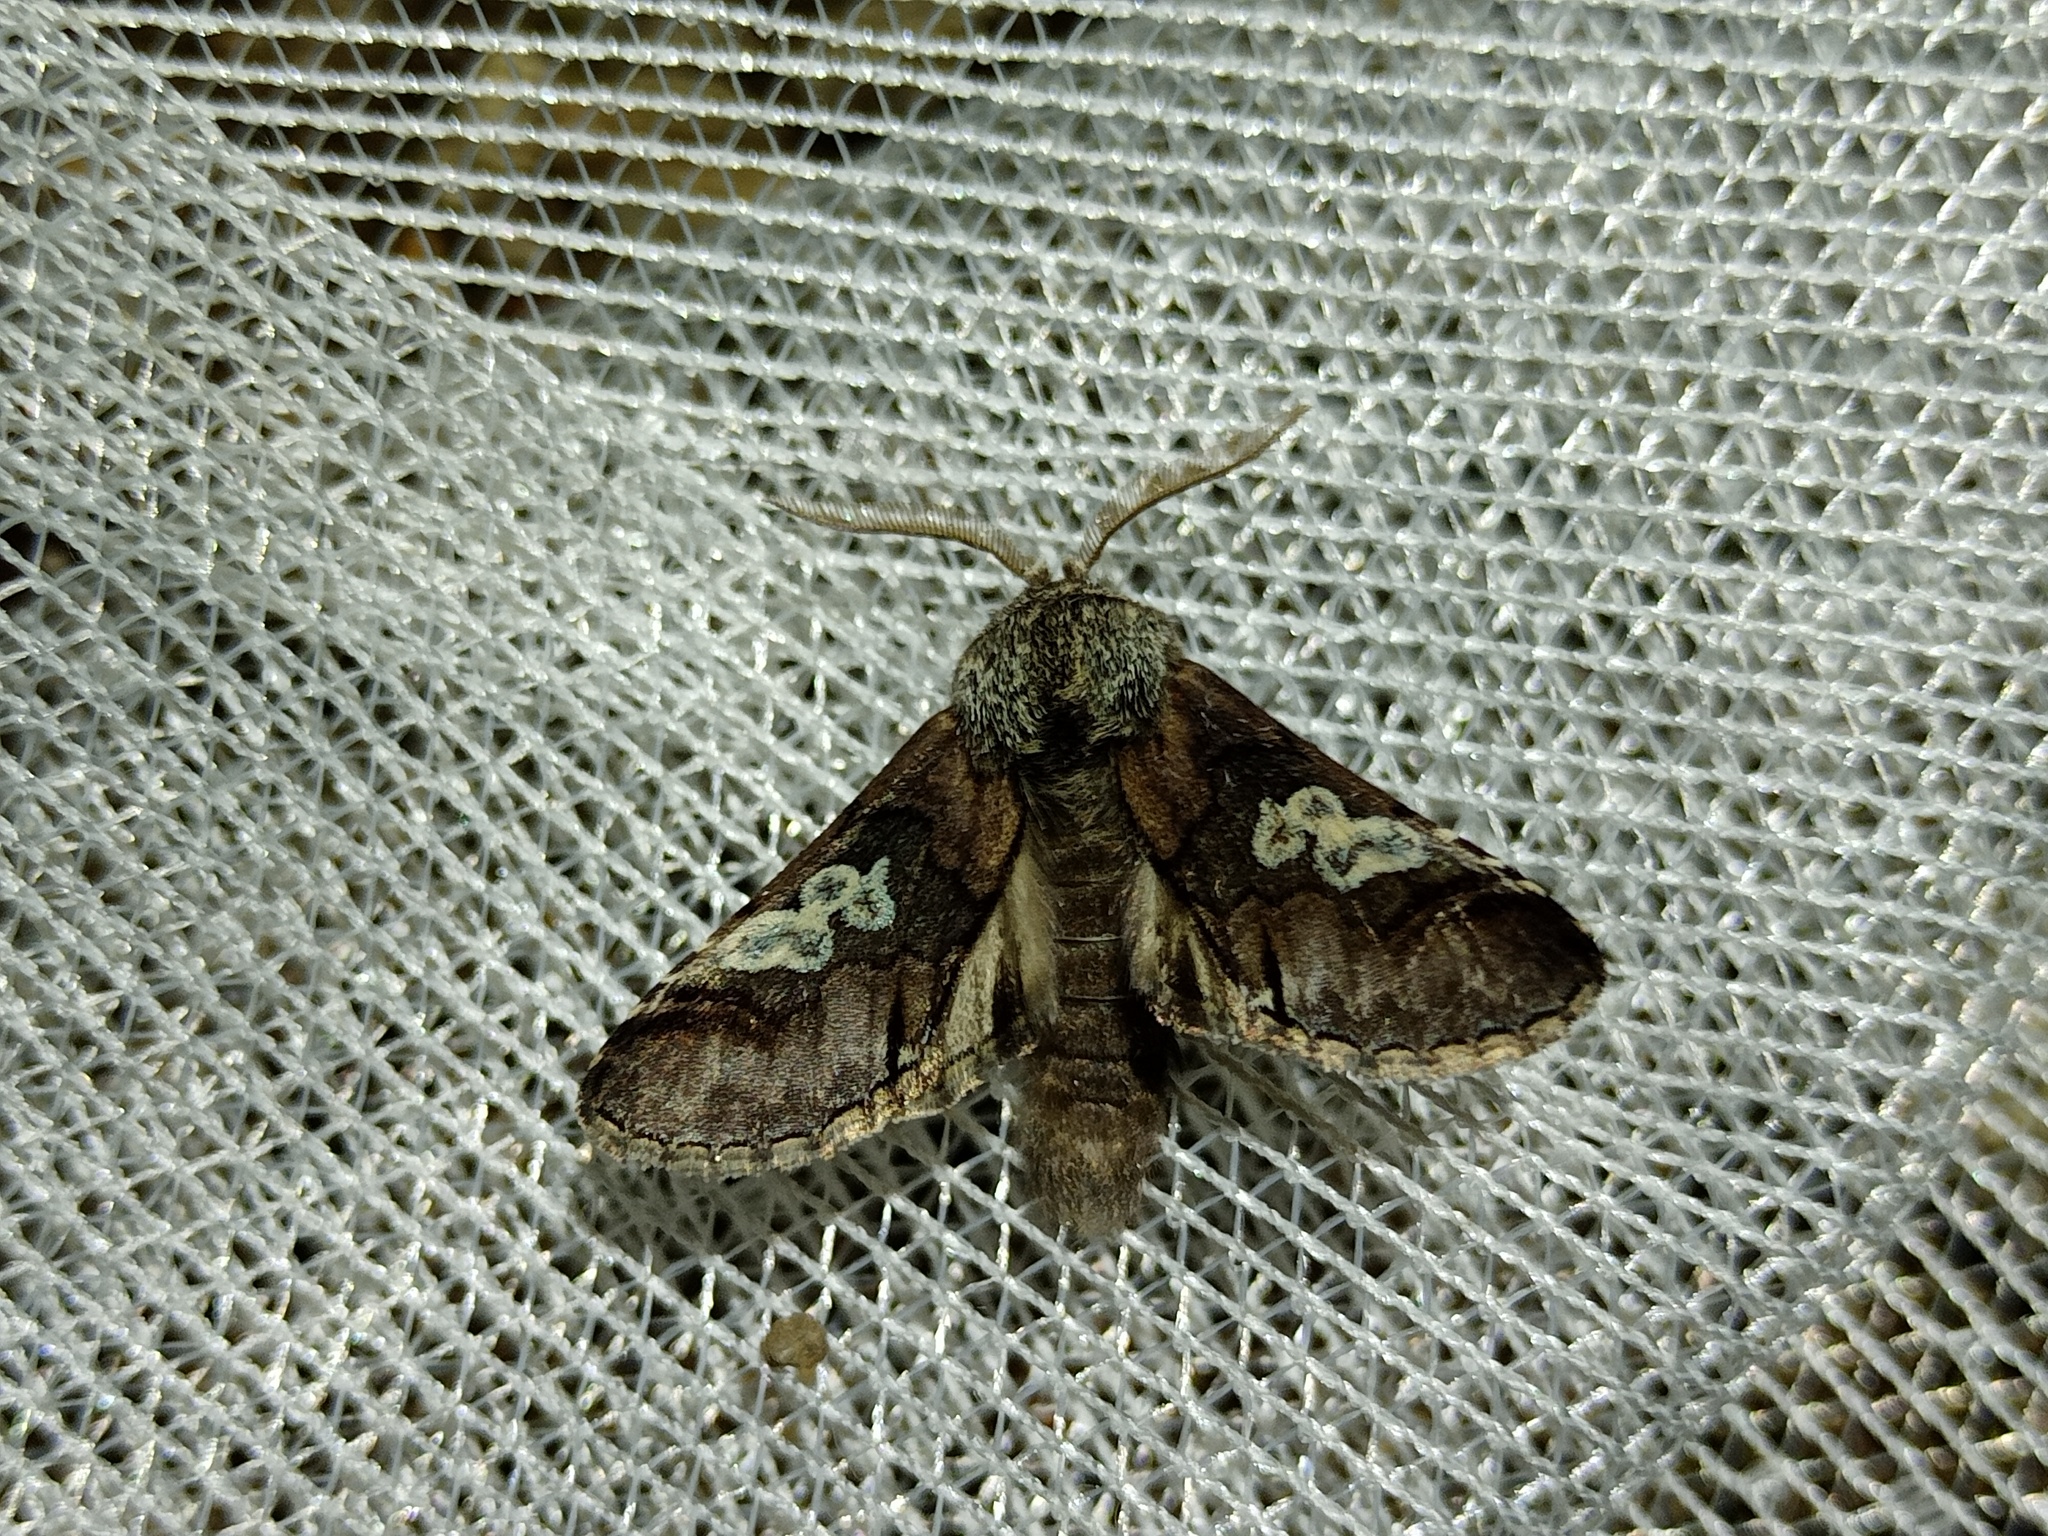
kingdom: Animalia
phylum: Arthropoda
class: Insecta
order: Lepidoptera
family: Noctuidae
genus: Diloba
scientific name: Diloba caeruleocephala
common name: Figure of eight
